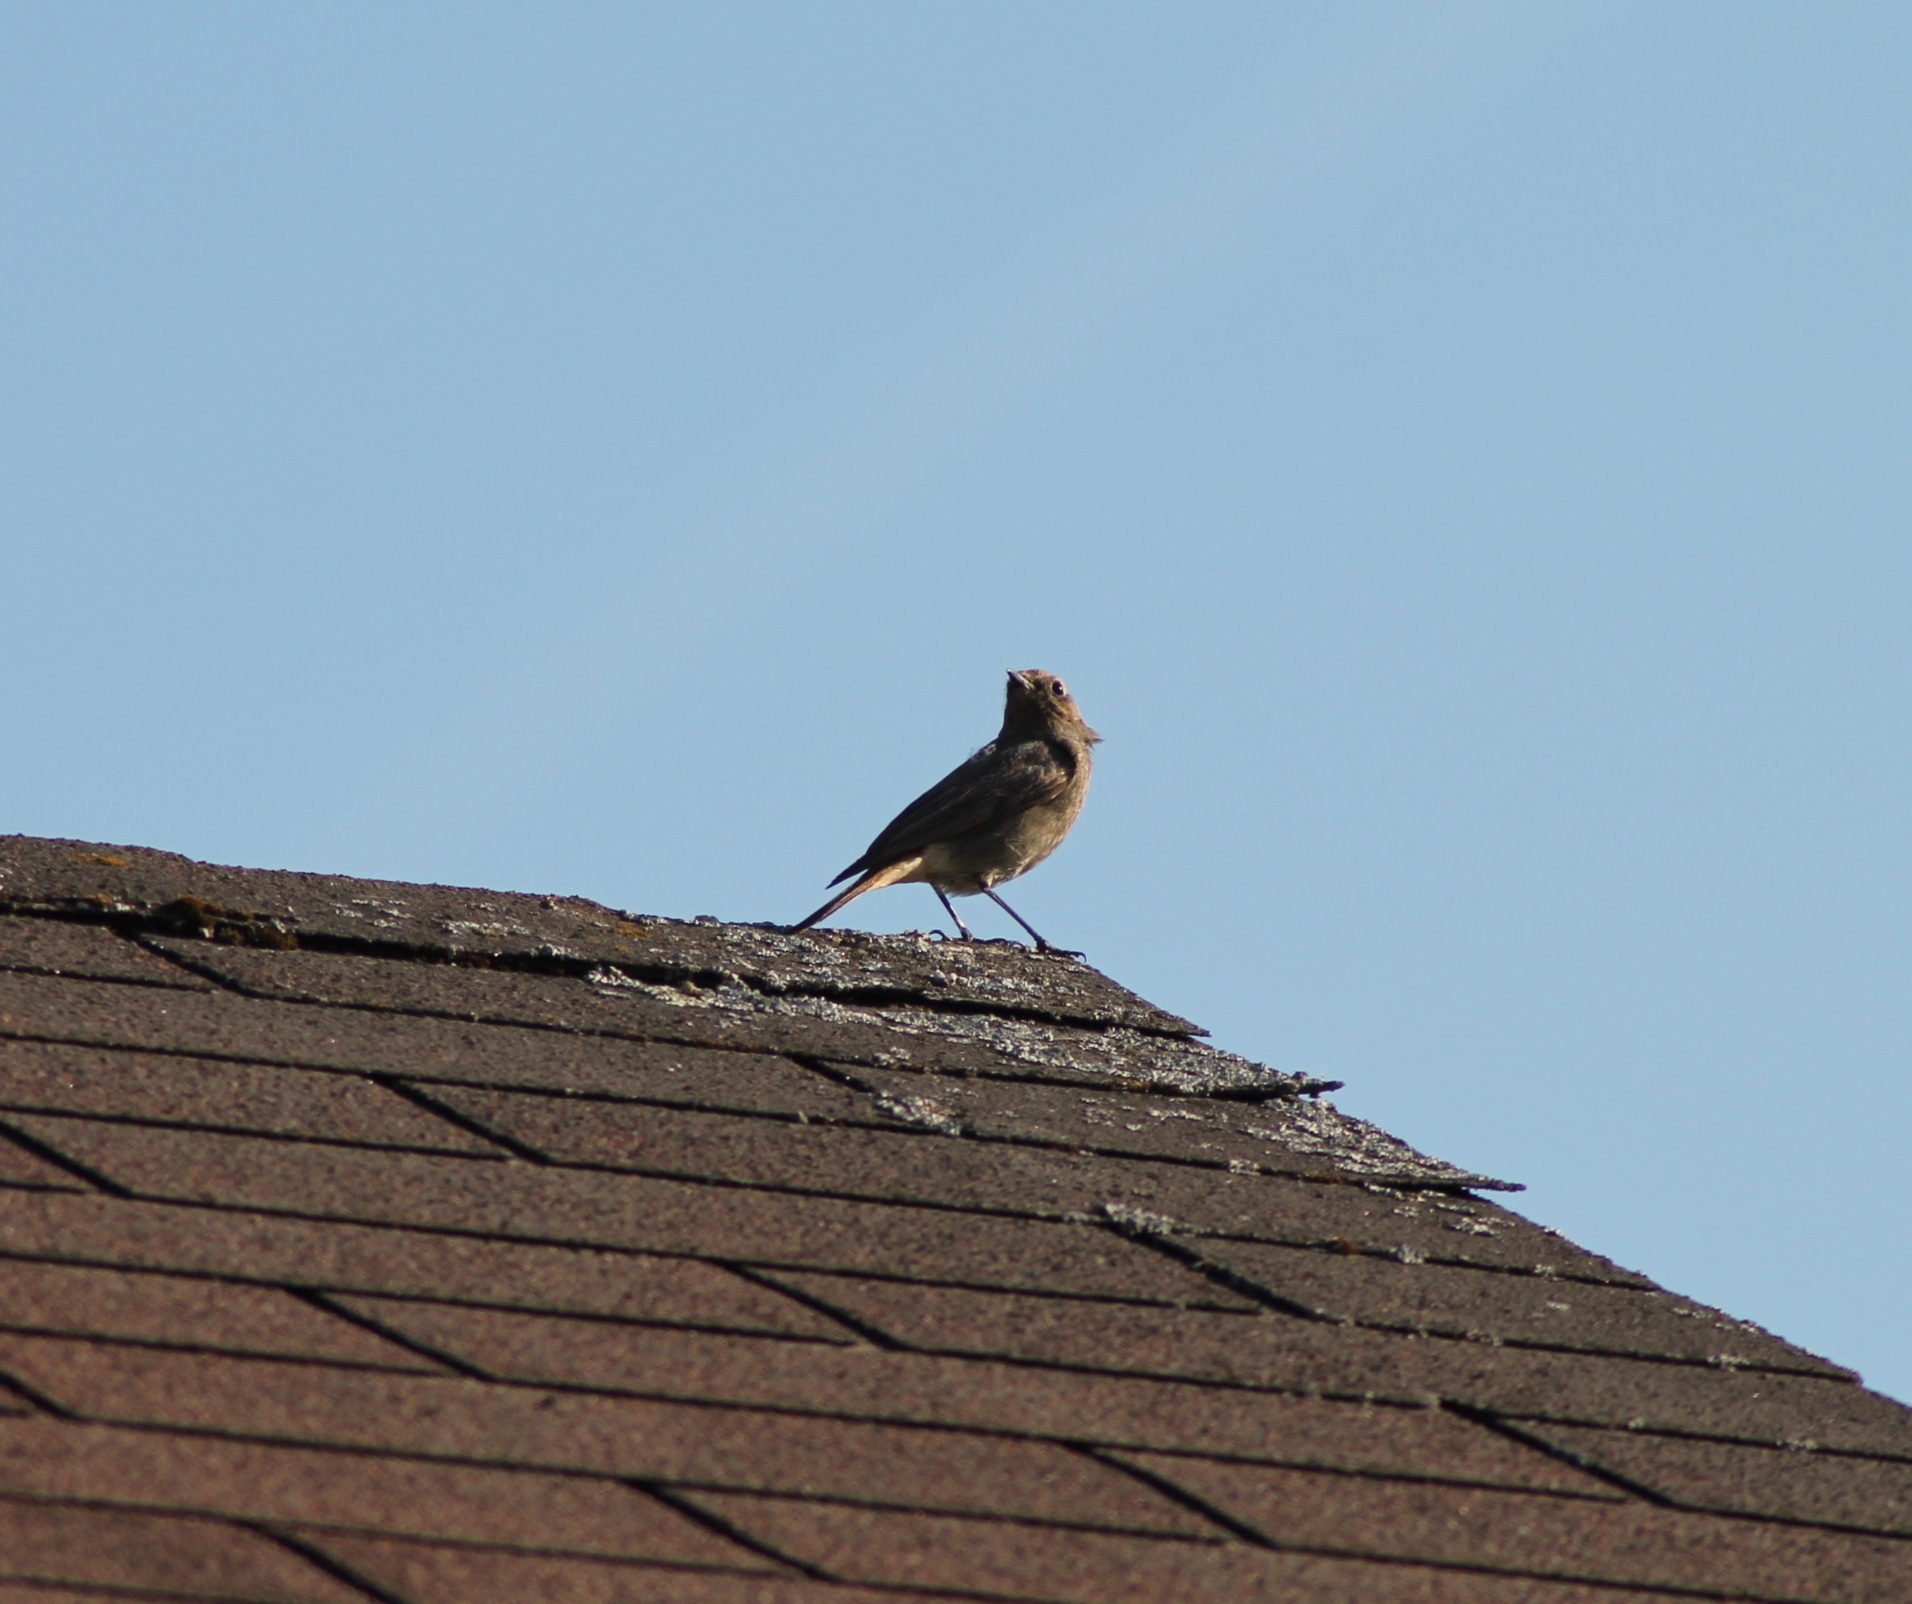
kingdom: Animalia
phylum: Chordata
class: Aves
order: Passeriformes
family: Muscicapidae
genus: Phoenicurus
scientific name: Phoenicurus ochruros
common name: Black redstart
